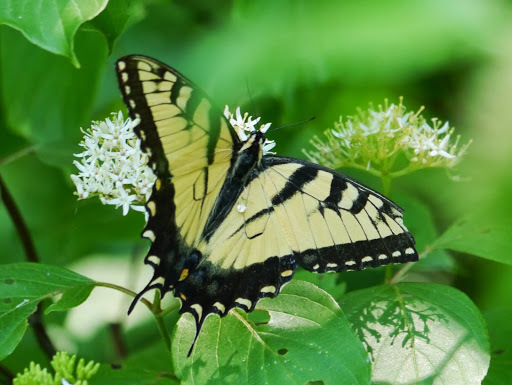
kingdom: Animalia
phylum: Arthropoda
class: Insecta
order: Lepidoptera
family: Papilionidae
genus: Papilio
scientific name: Papilio glaucus
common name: Tiger swallowtail
